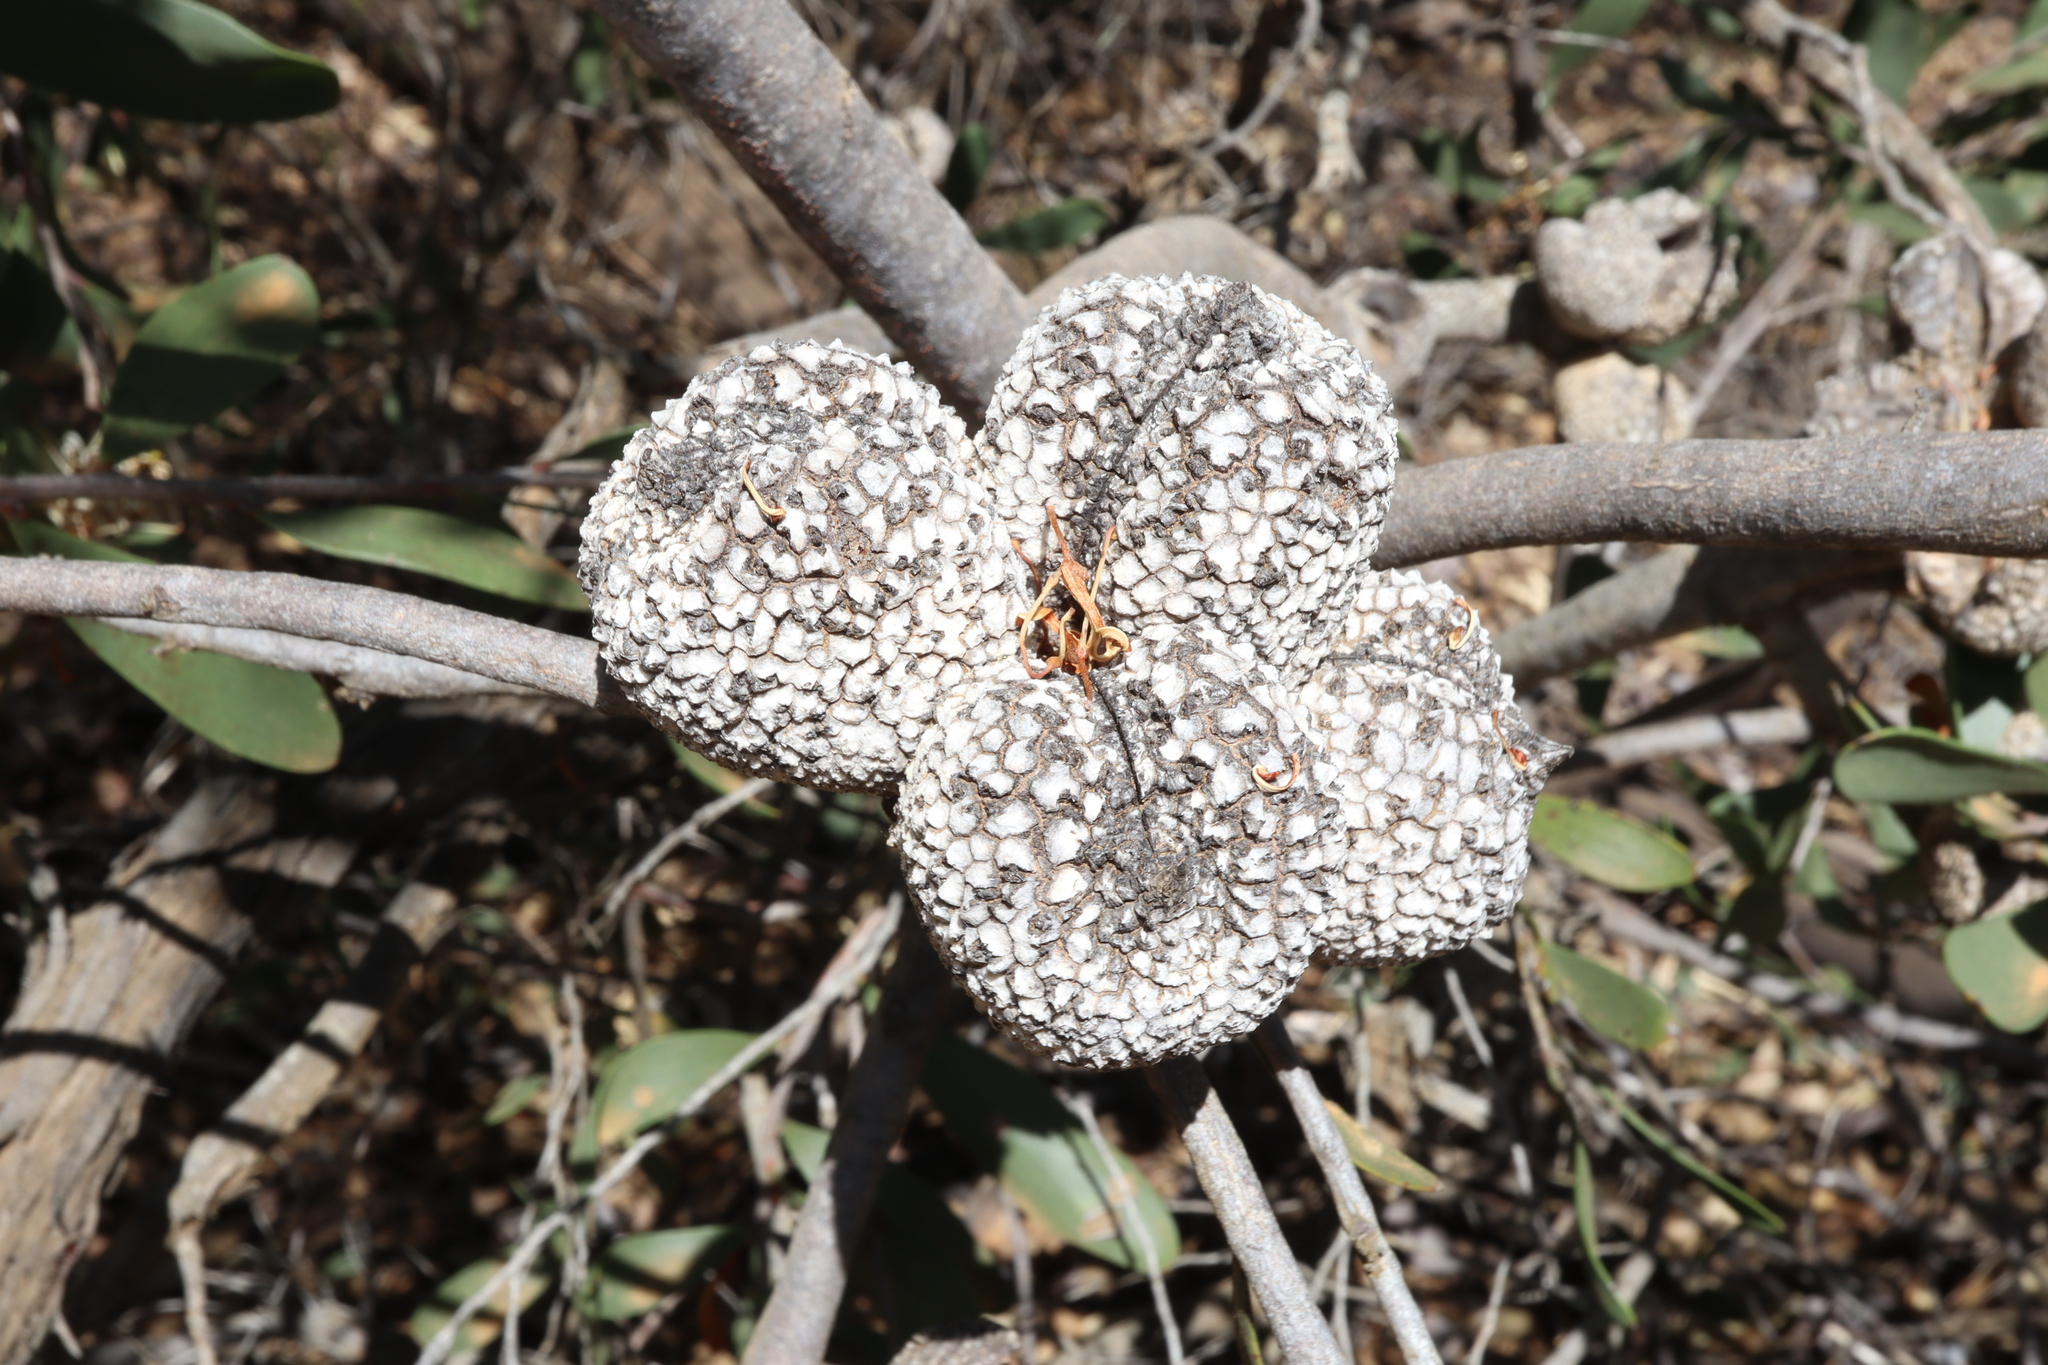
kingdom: Plantae
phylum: Tracheophyta
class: Magnoliopsida
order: Proteales
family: Proteaceae
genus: Hakea
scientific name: Hakea pandanicarpa
